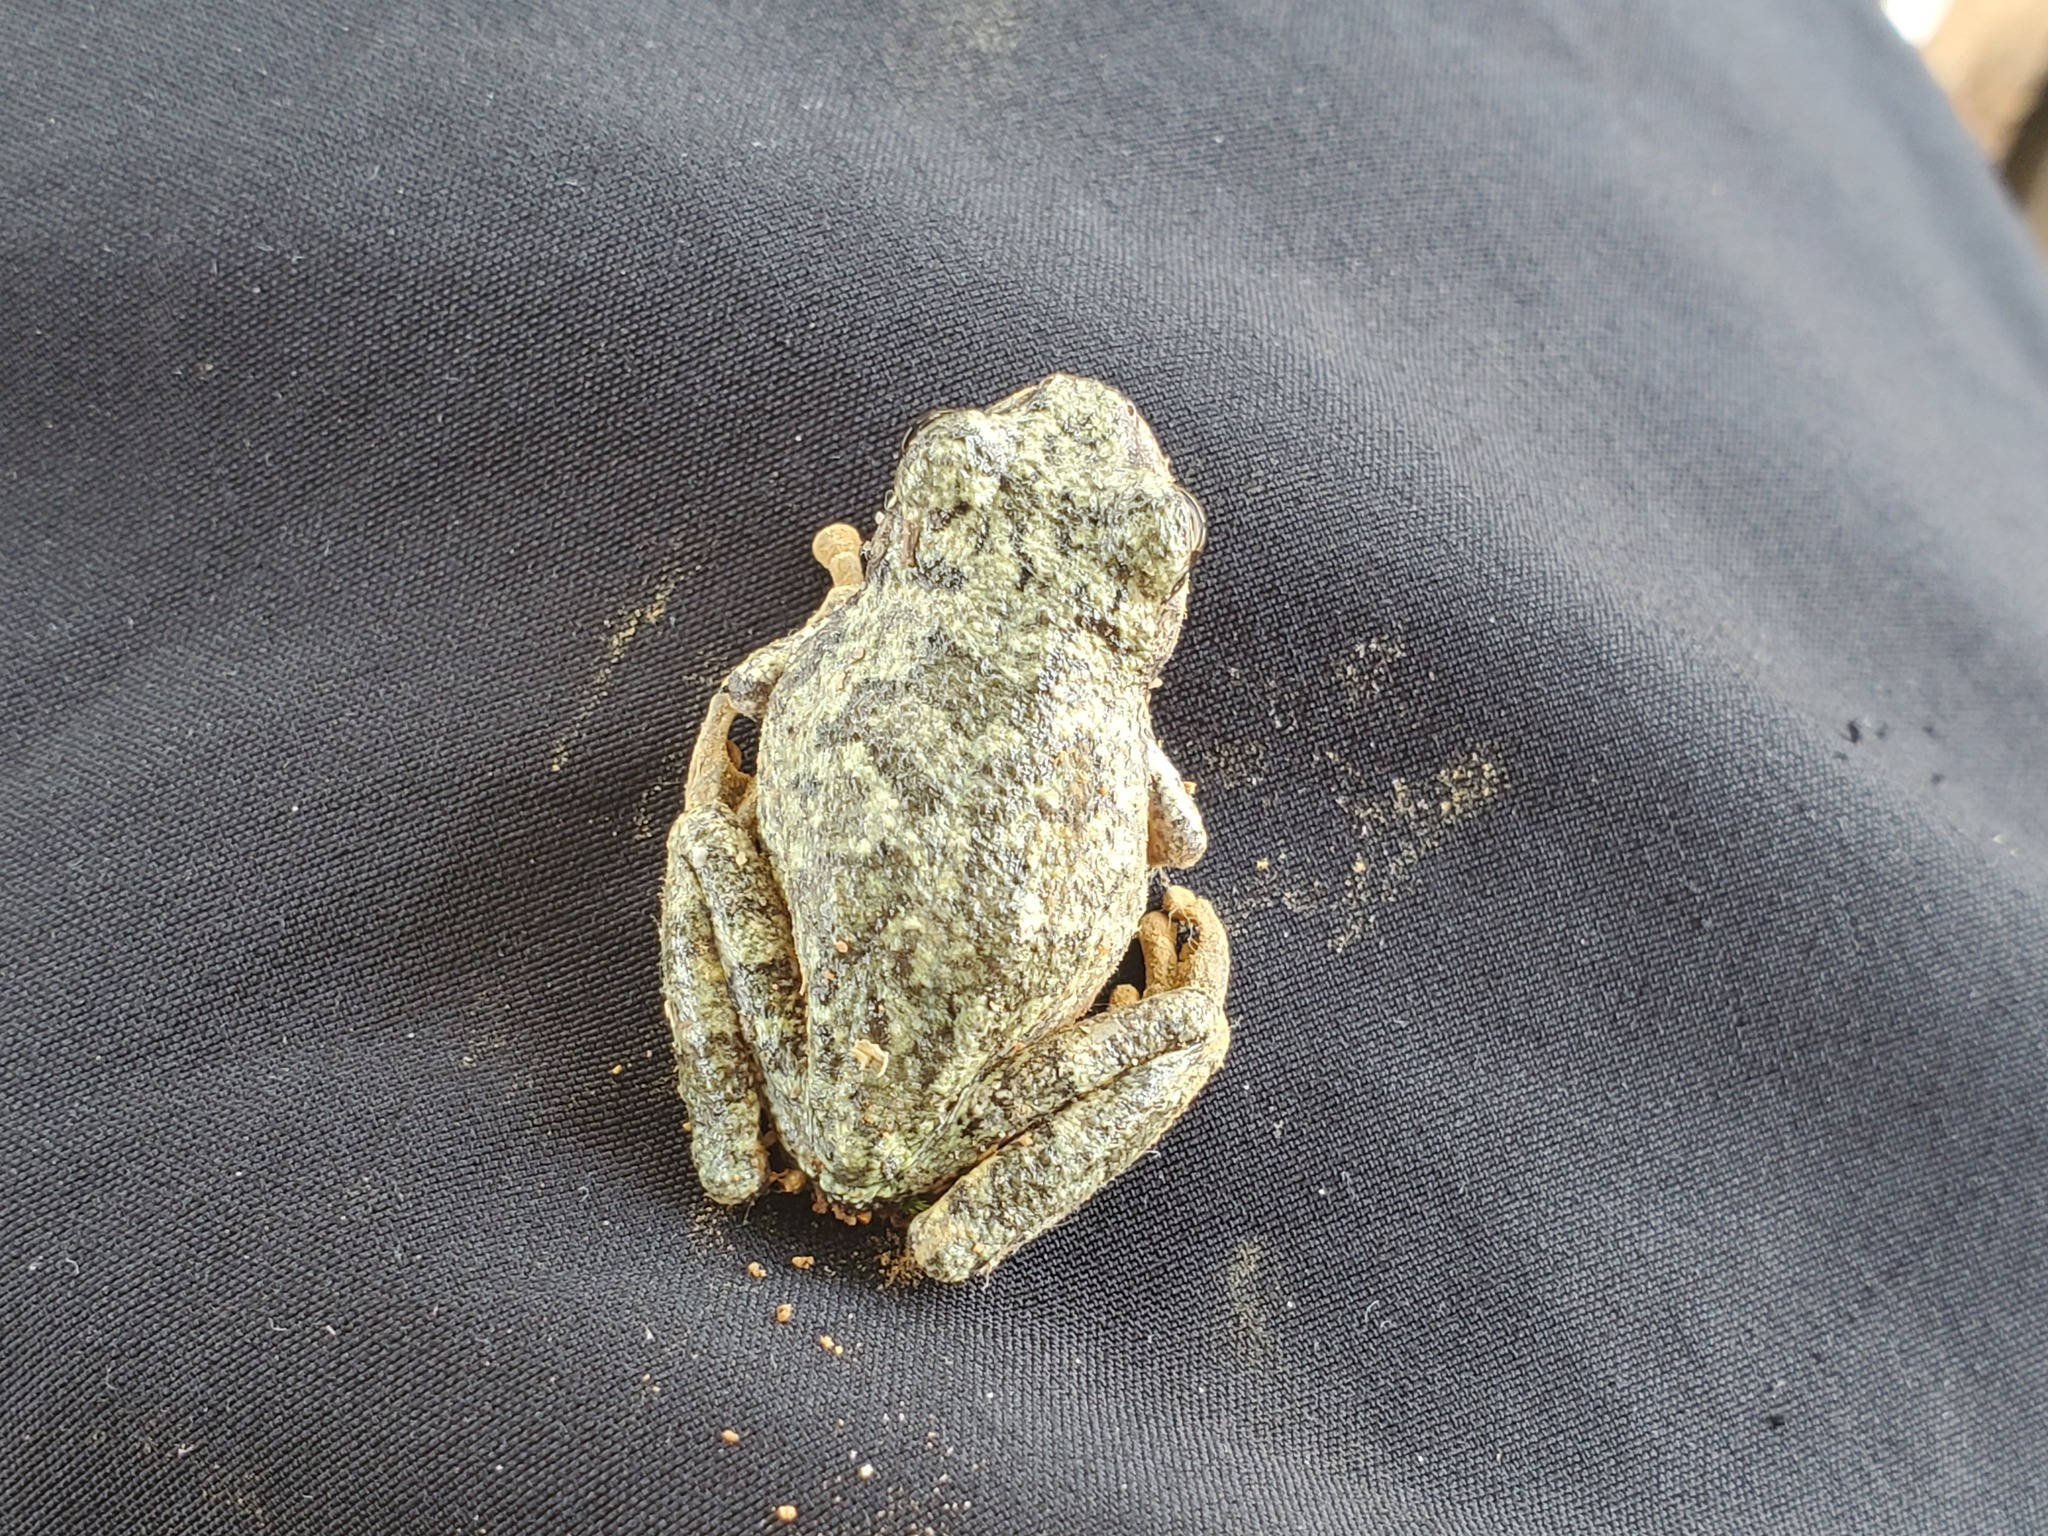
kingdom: Animalia
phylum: Chordata
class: Amphibia
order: Anura
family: Hylidae
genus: Dryophytes
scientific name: Dryophytes chrysoscelis
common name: Cope's gray treefrog
